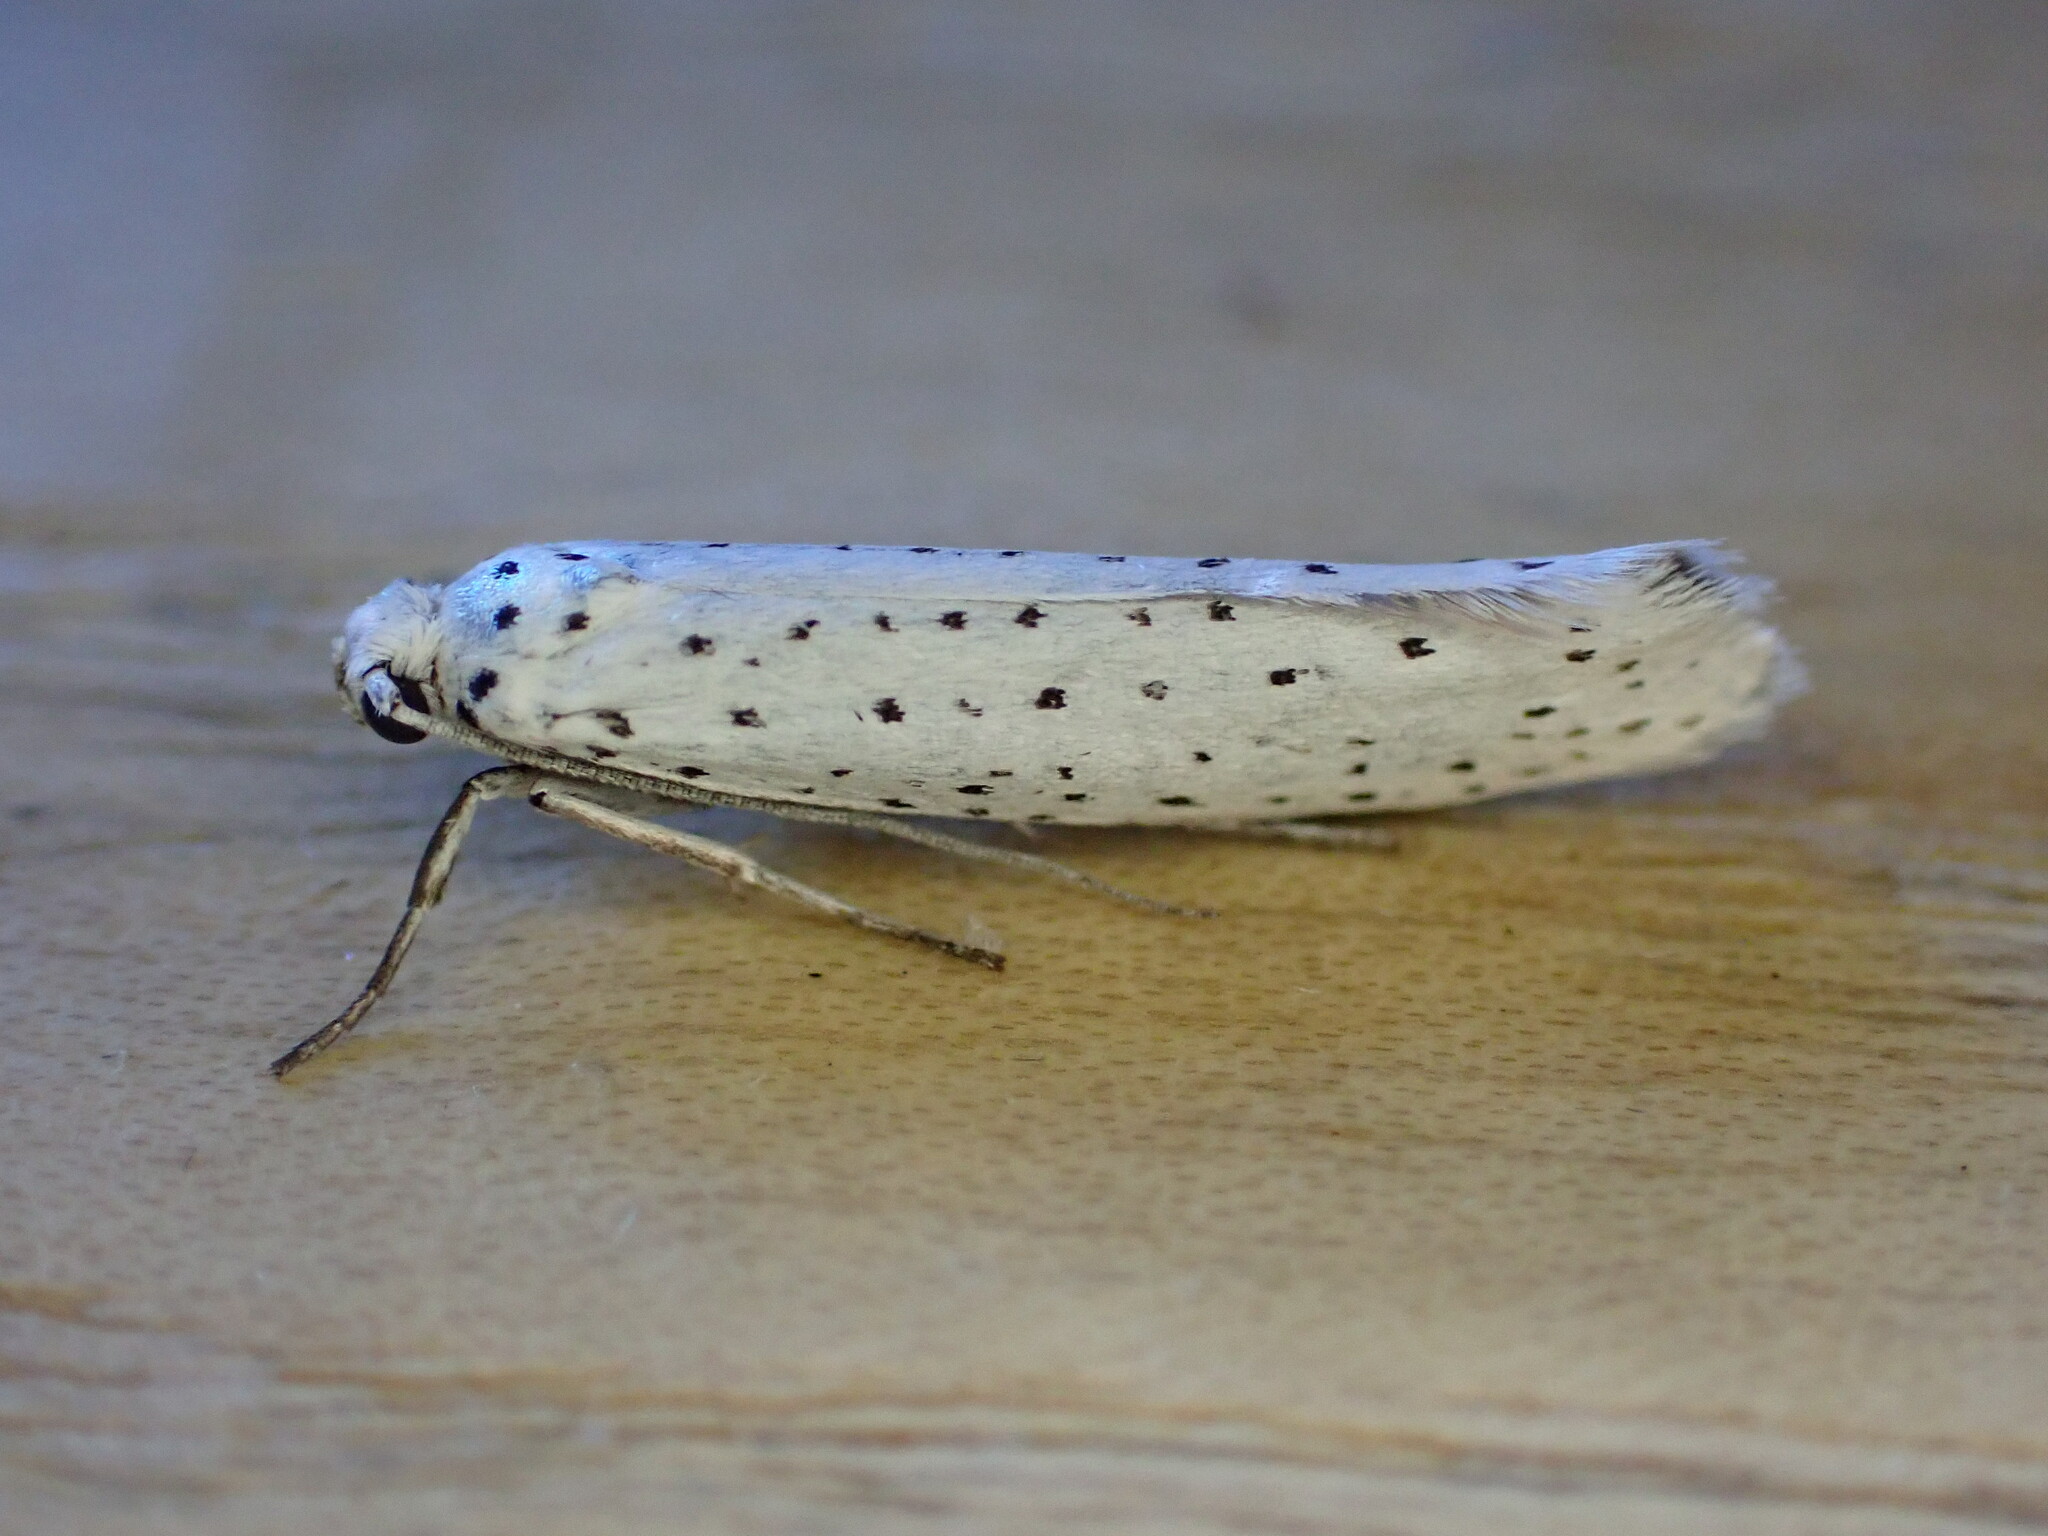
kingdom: Animalia
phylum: Arthropoda
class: Insecta
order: Lepidoptera
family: Yponomeutidae
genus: Yponomeuta
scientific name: Yponomeuta evonymella
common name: Bird-cherry ermine
